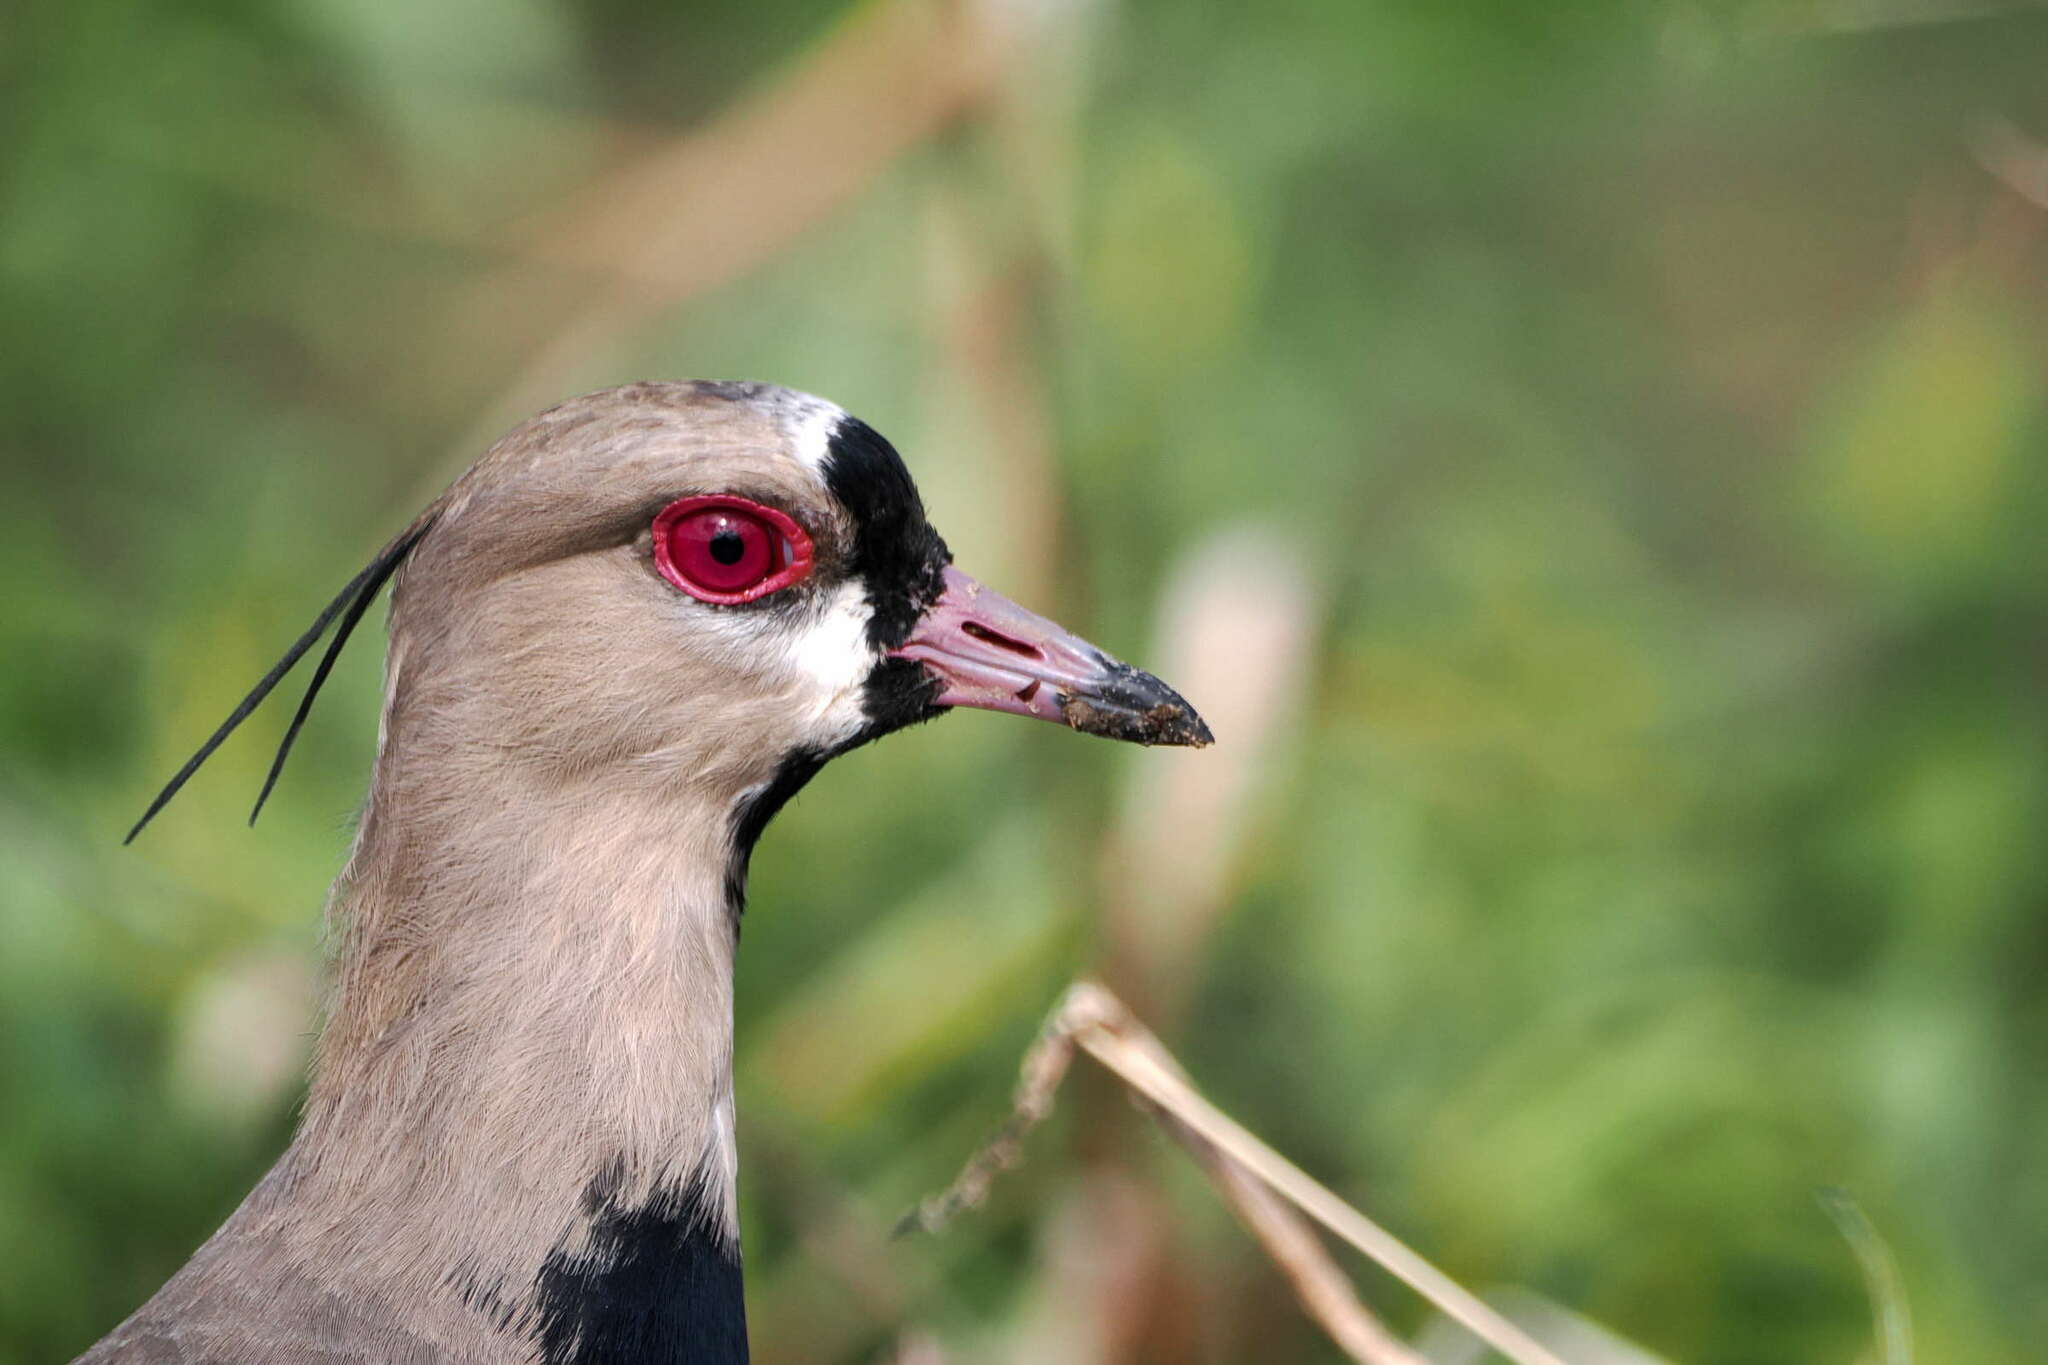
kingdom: Animalia
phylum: Chordata
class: Aves
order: Charadriiformes
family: Charadriidae
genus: Vanellus
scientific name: Vanellus chilensis
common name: Southern lapwing
